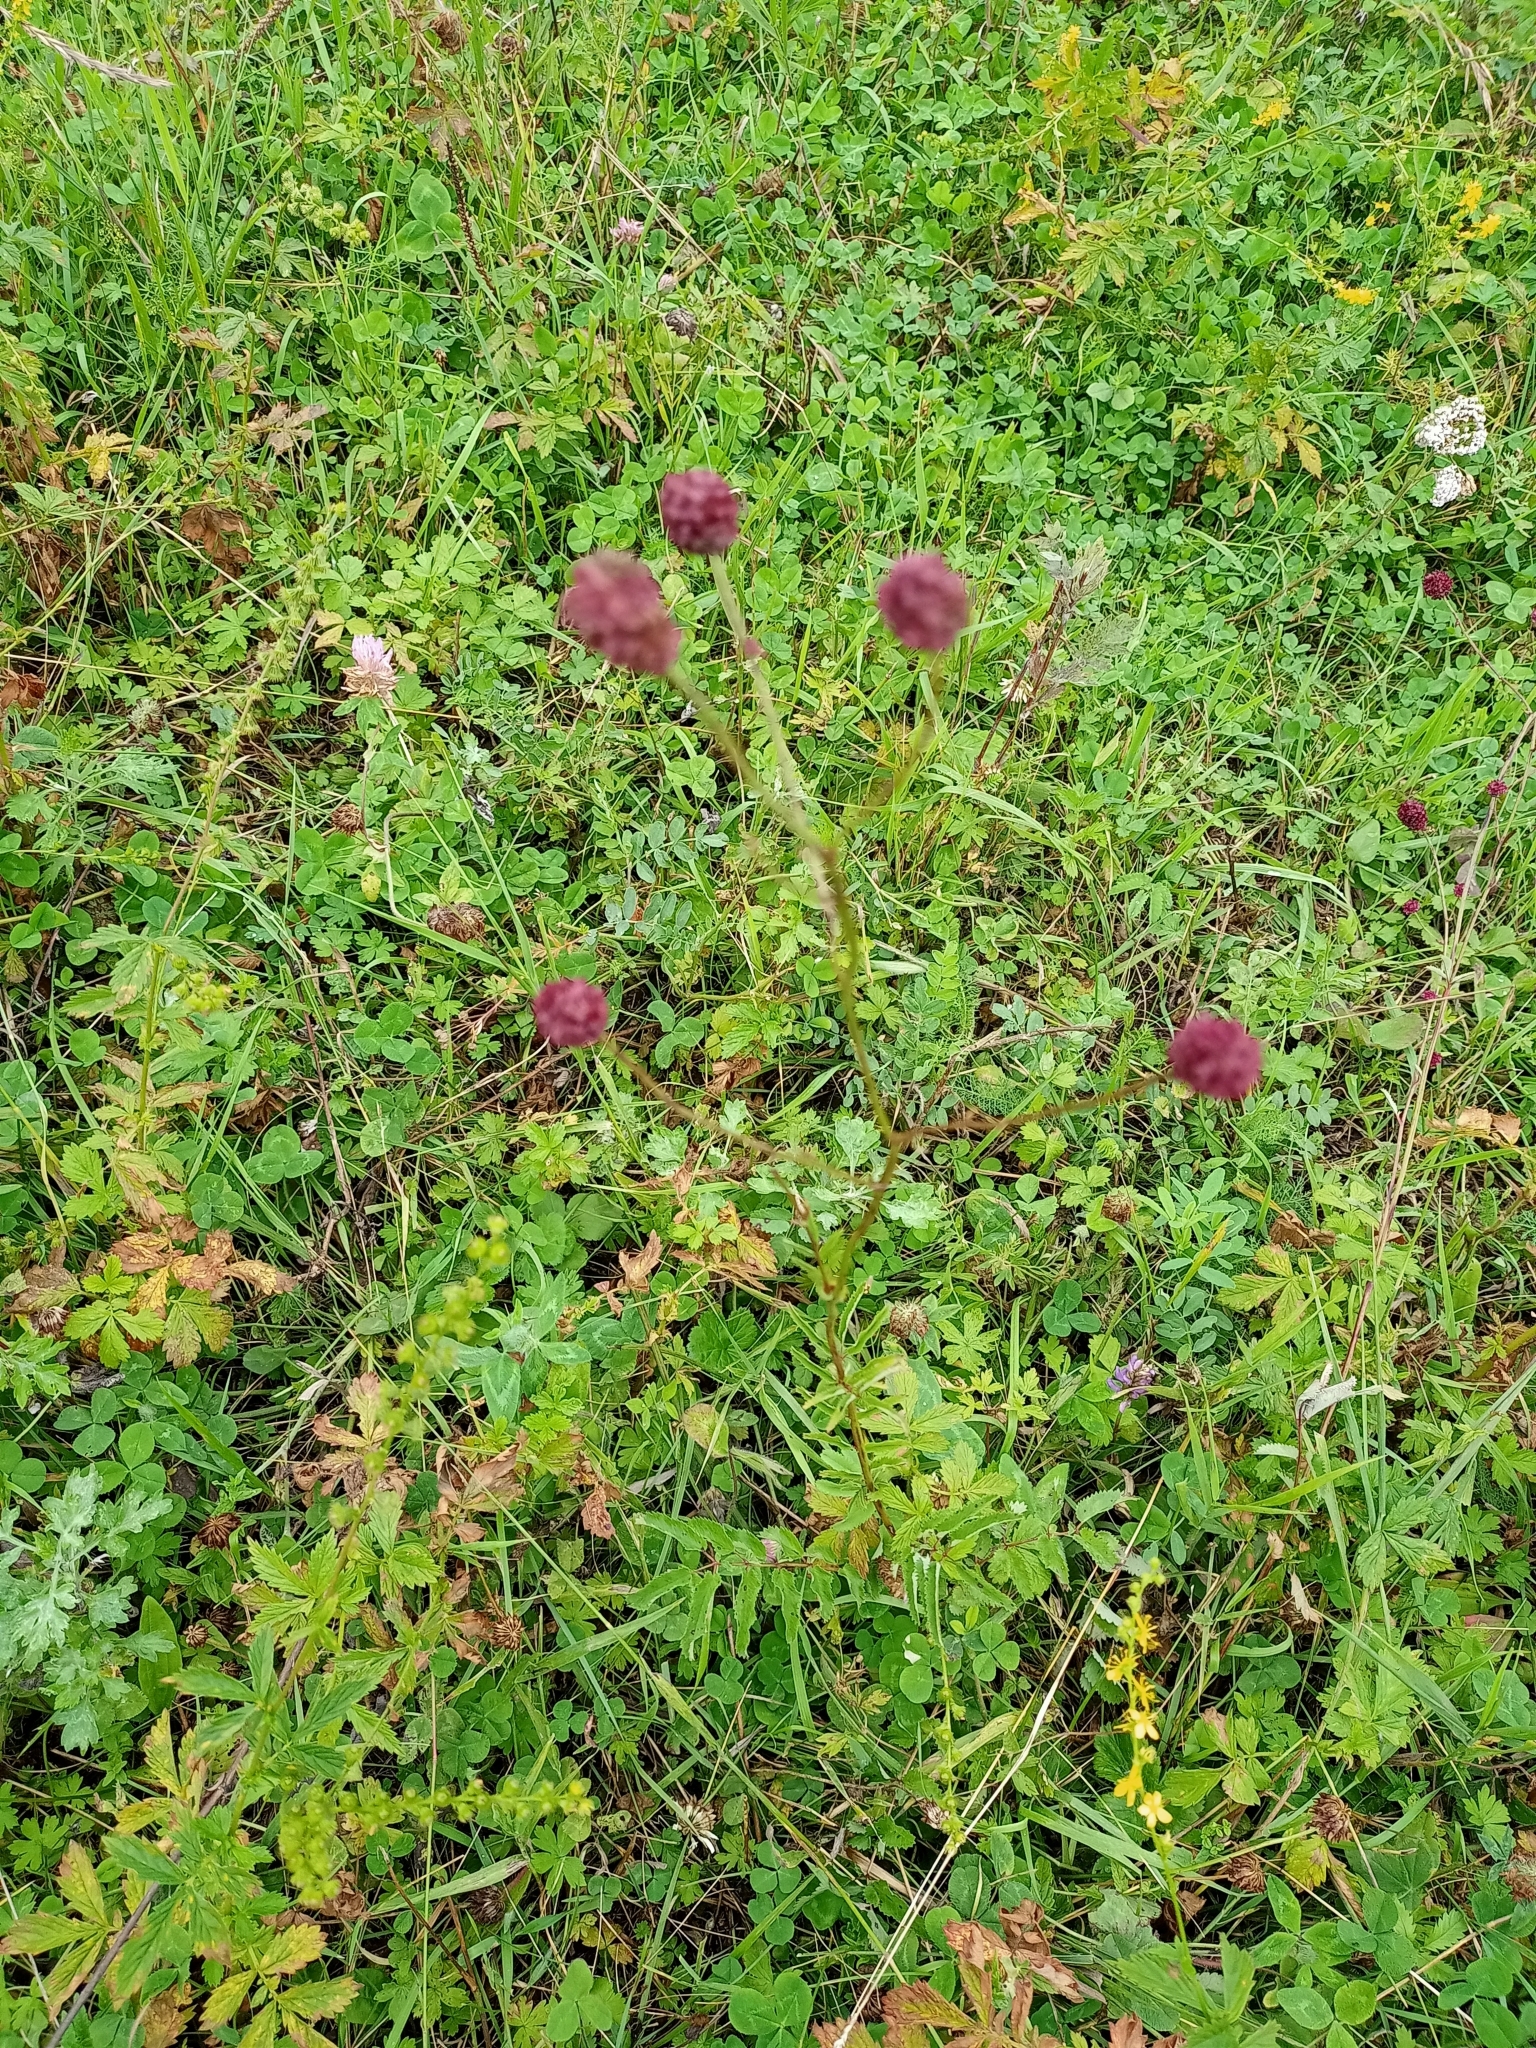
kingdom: Plantae
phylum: Tracheophyta
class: Magnoliopsida
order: Rosales
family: Rosaceae
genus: Sanguisorba
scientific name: Sanguisorba officinalis
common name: Great burnet
